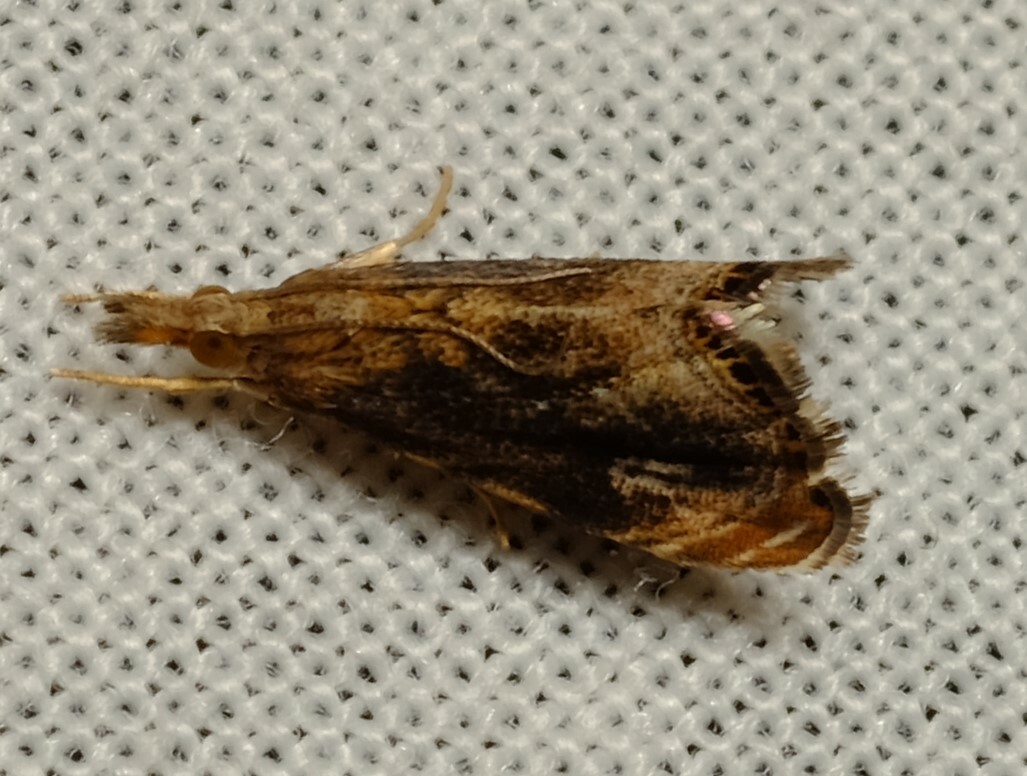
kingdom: Animalia
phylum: Arthropoda
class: Insecta
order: Lepidoptera
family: Crambidae
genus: Glaucocharis
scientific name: Glaucocharis dilatella
